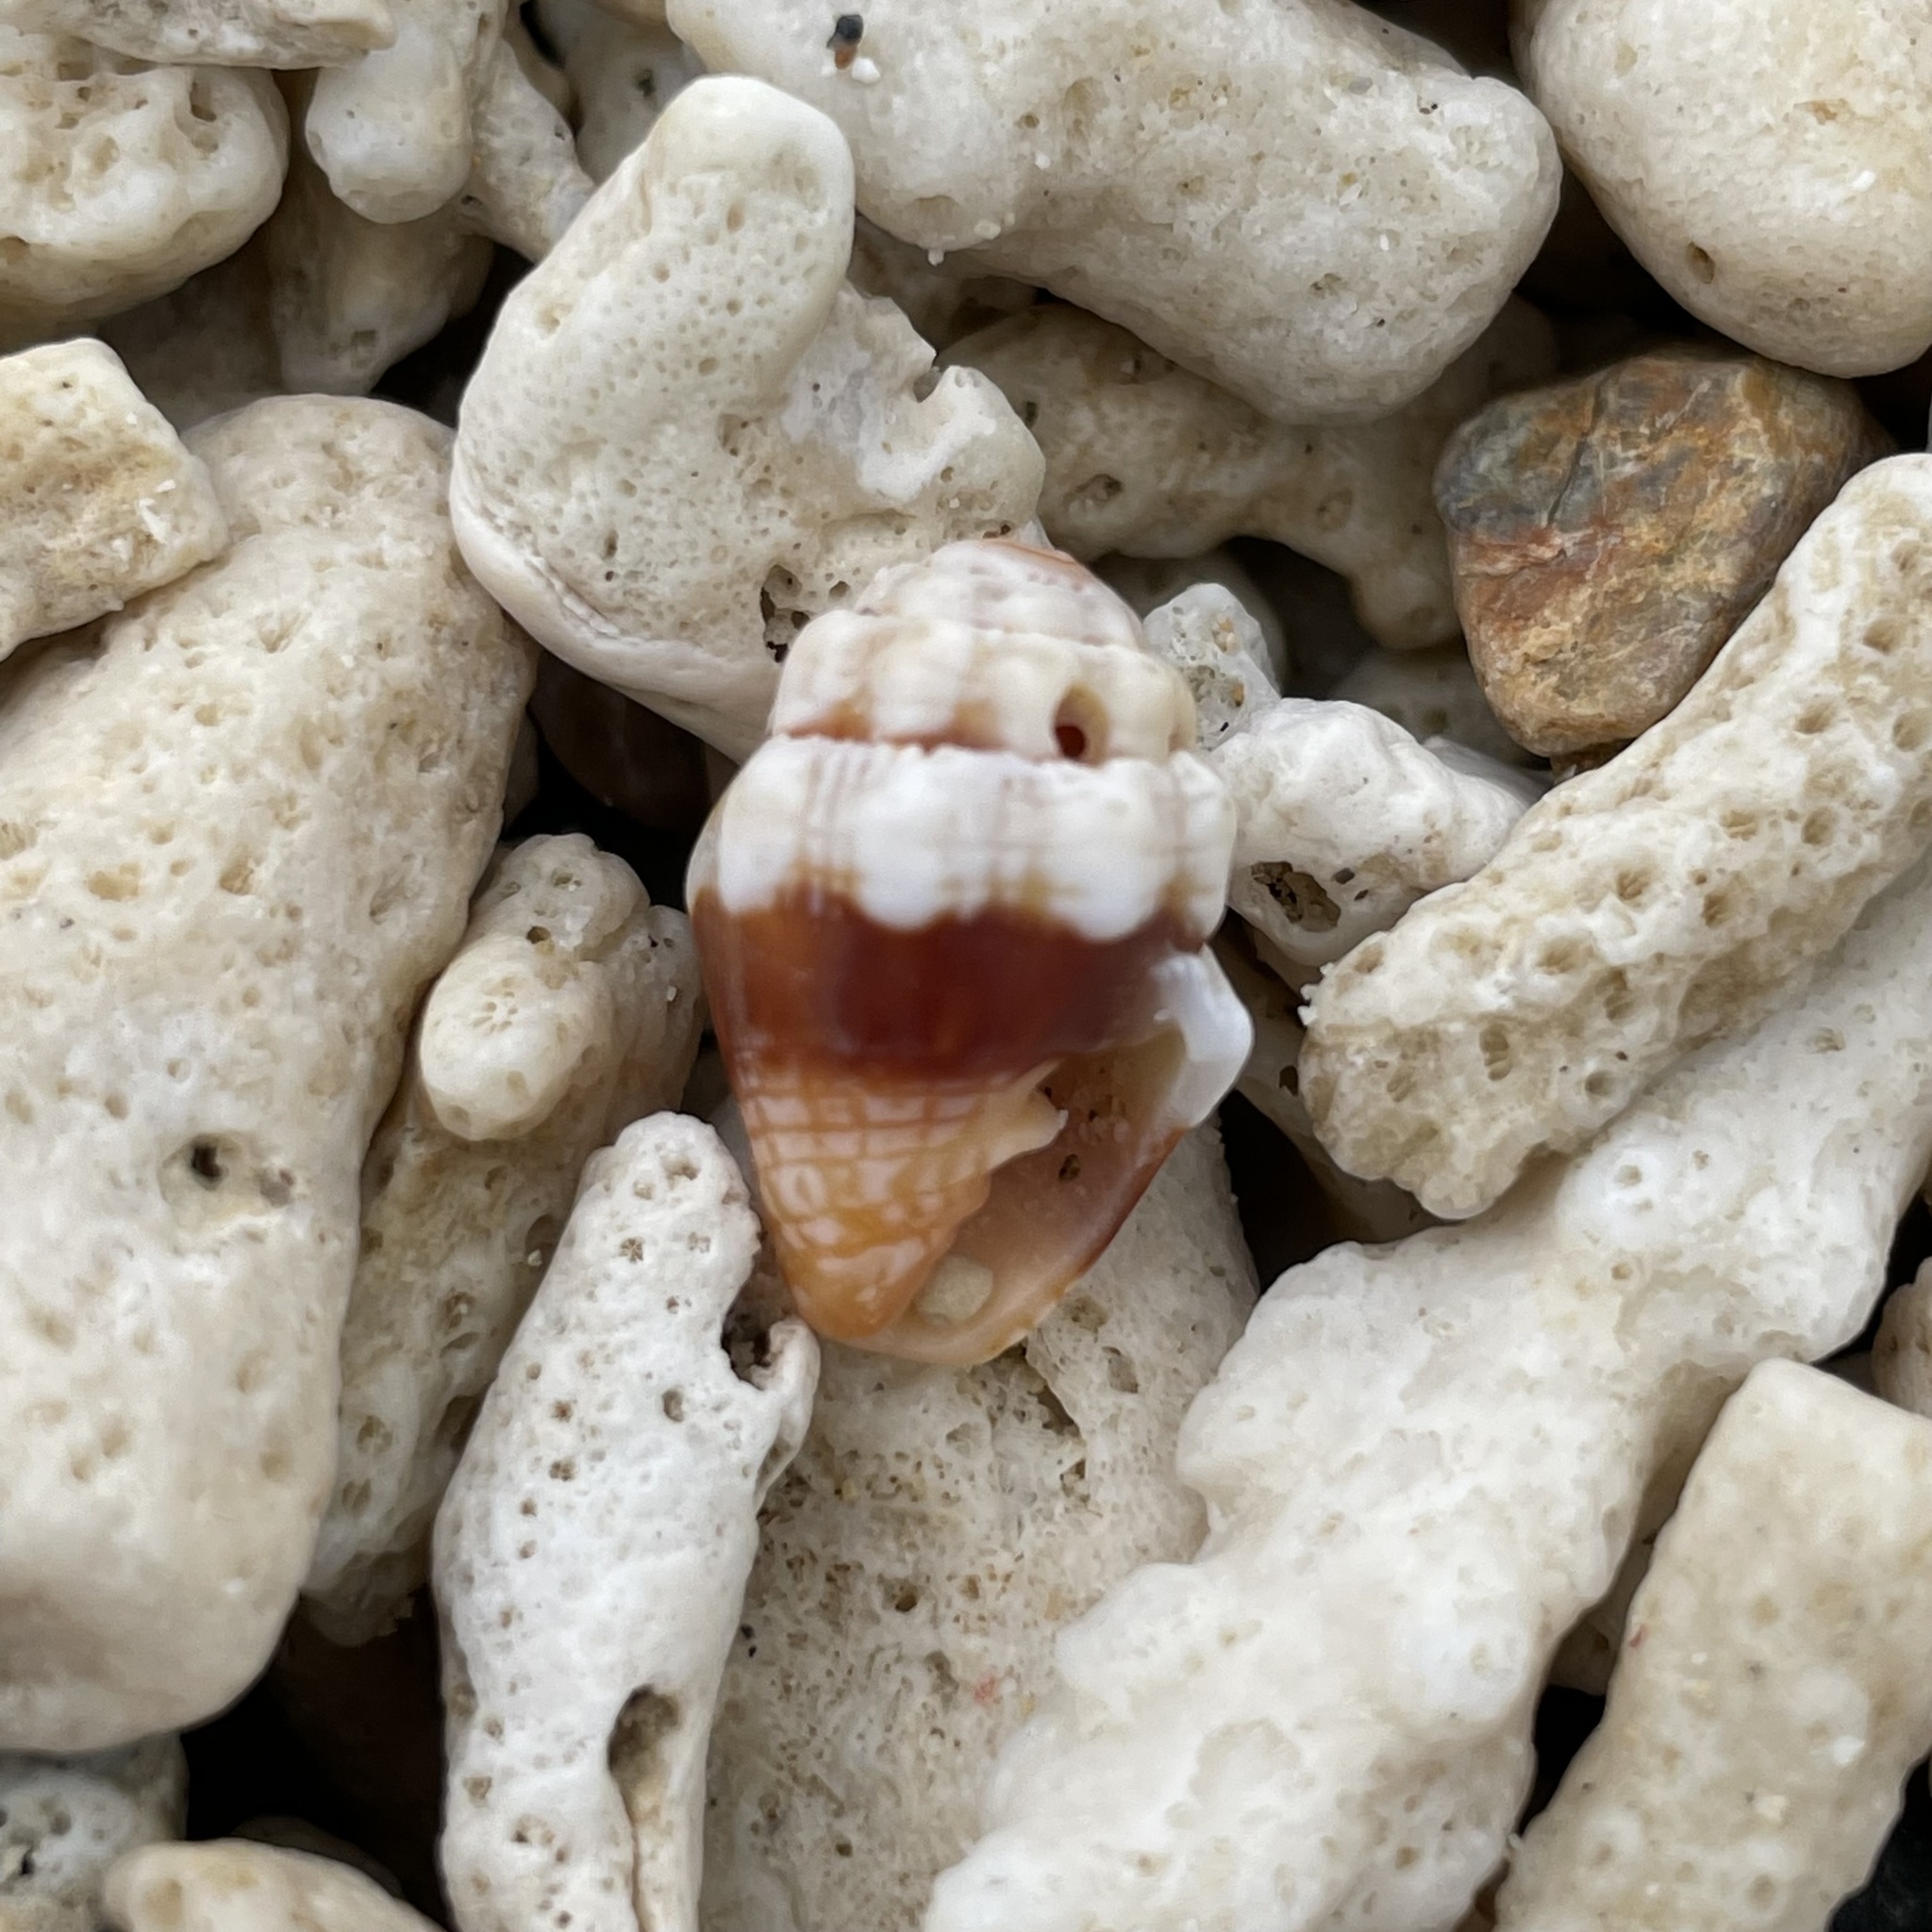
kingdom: Animalia
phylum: Mollusca
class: Gastropoda
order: Neogastropoda
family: Costellariidae
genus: Orphanopusia
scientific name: Orphanopusia patriarchalis
